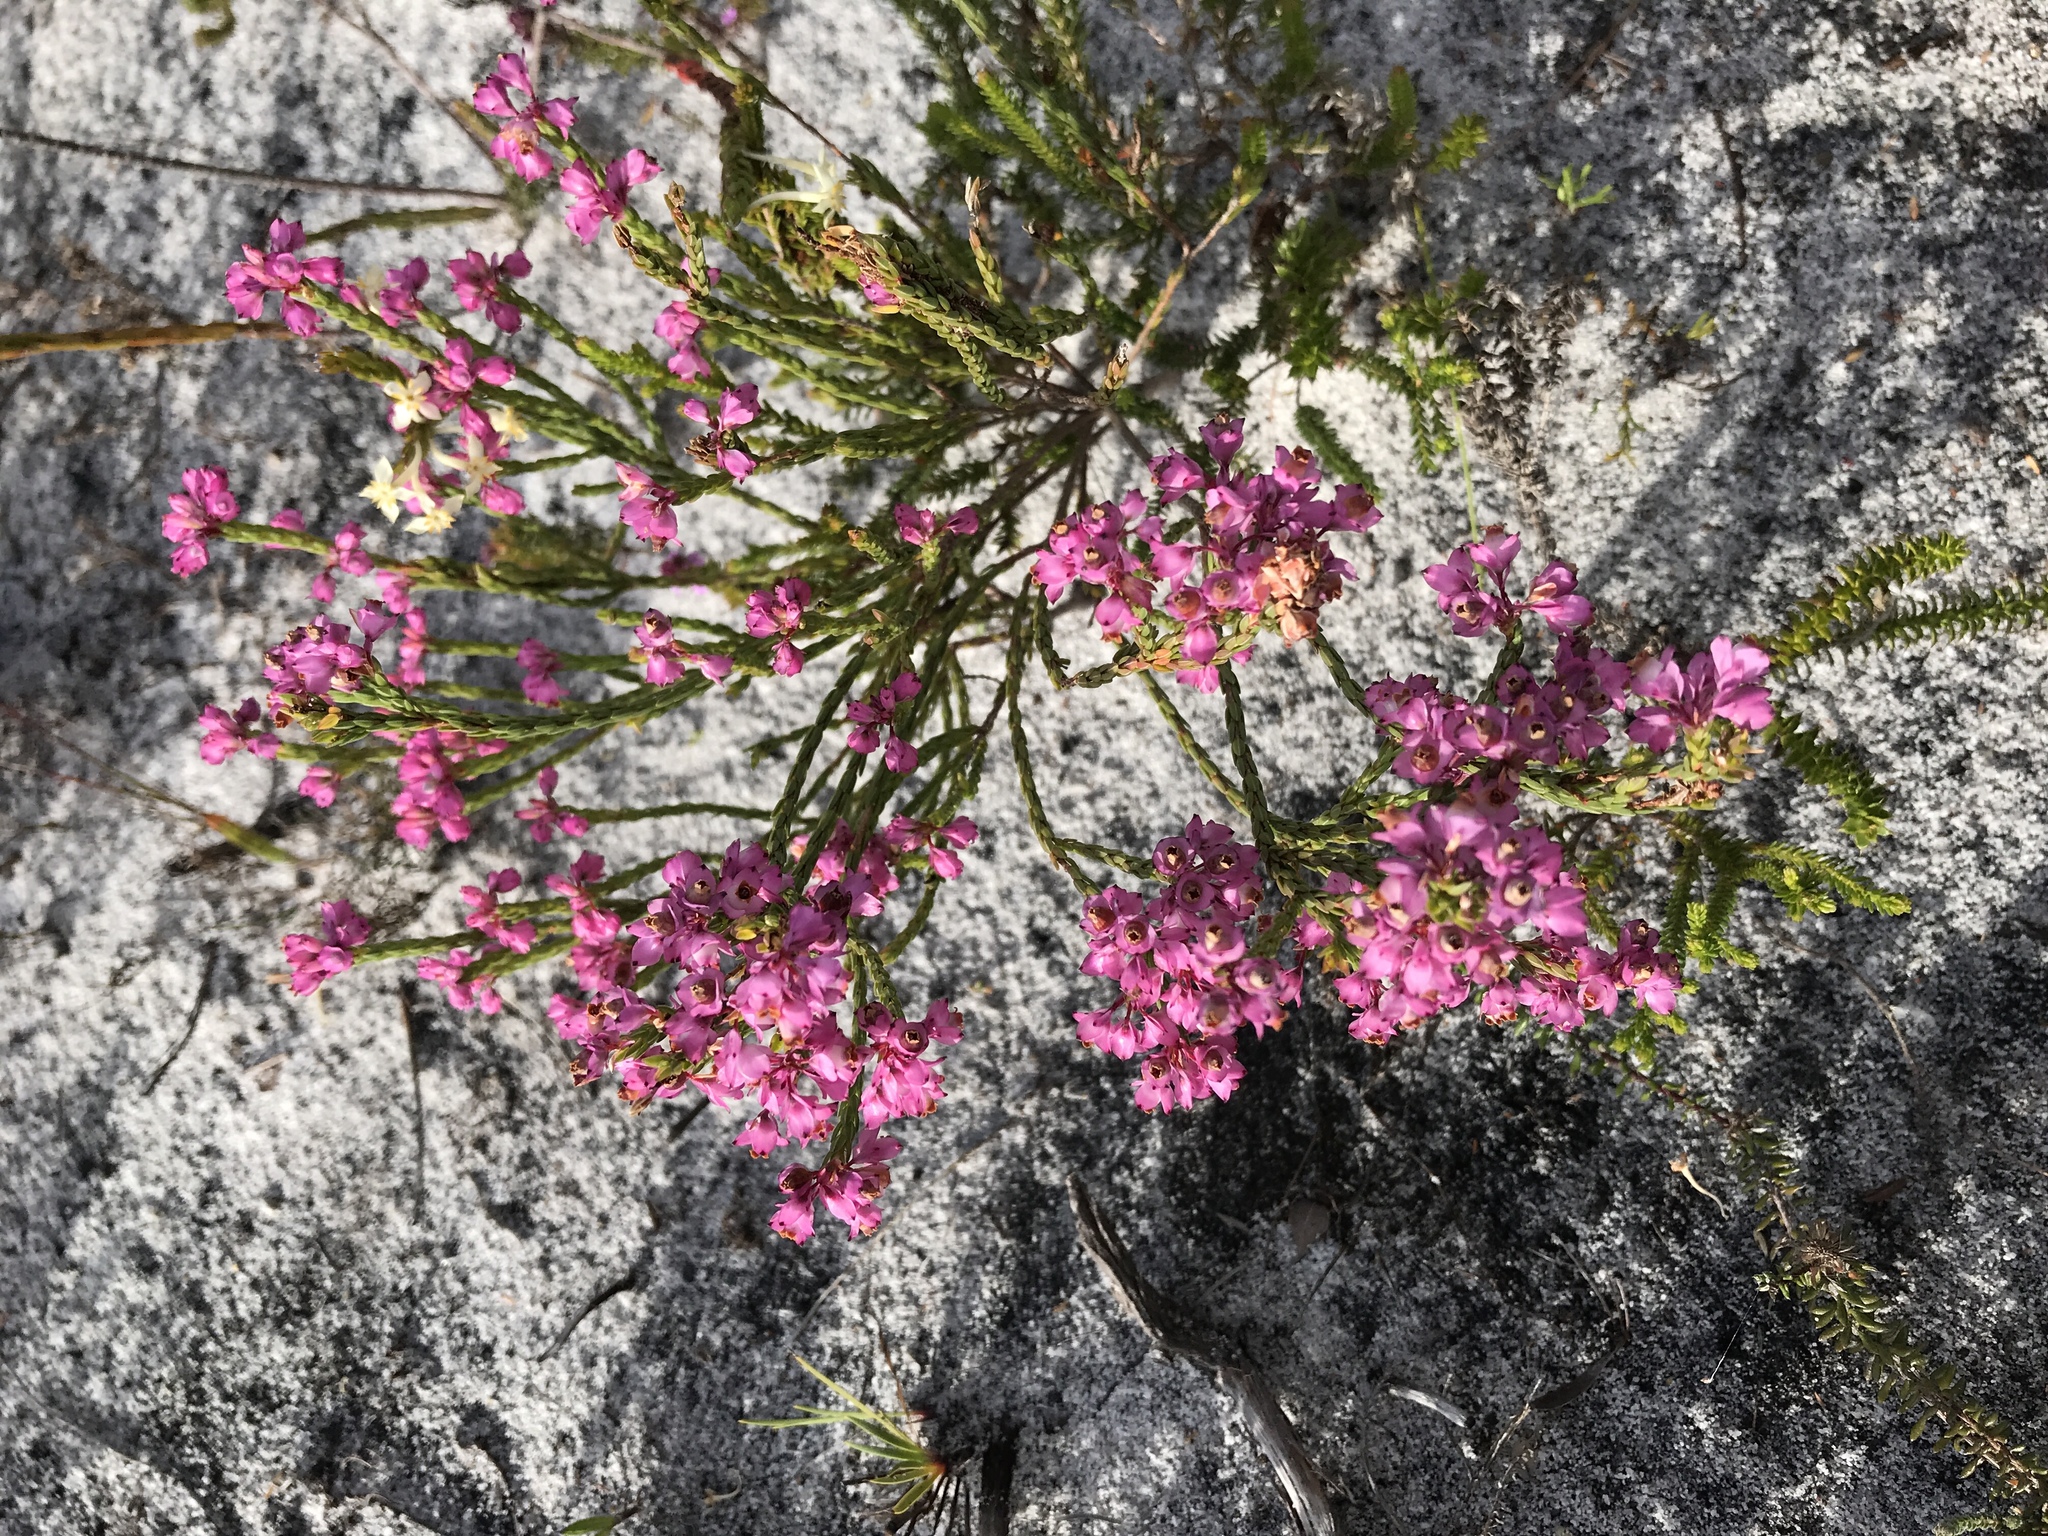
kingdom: Plantae
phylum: Tracheophyta
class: Magnoliopsida
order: Ericales
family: Ericaceae
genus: Erica
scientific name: Erica corifolia
